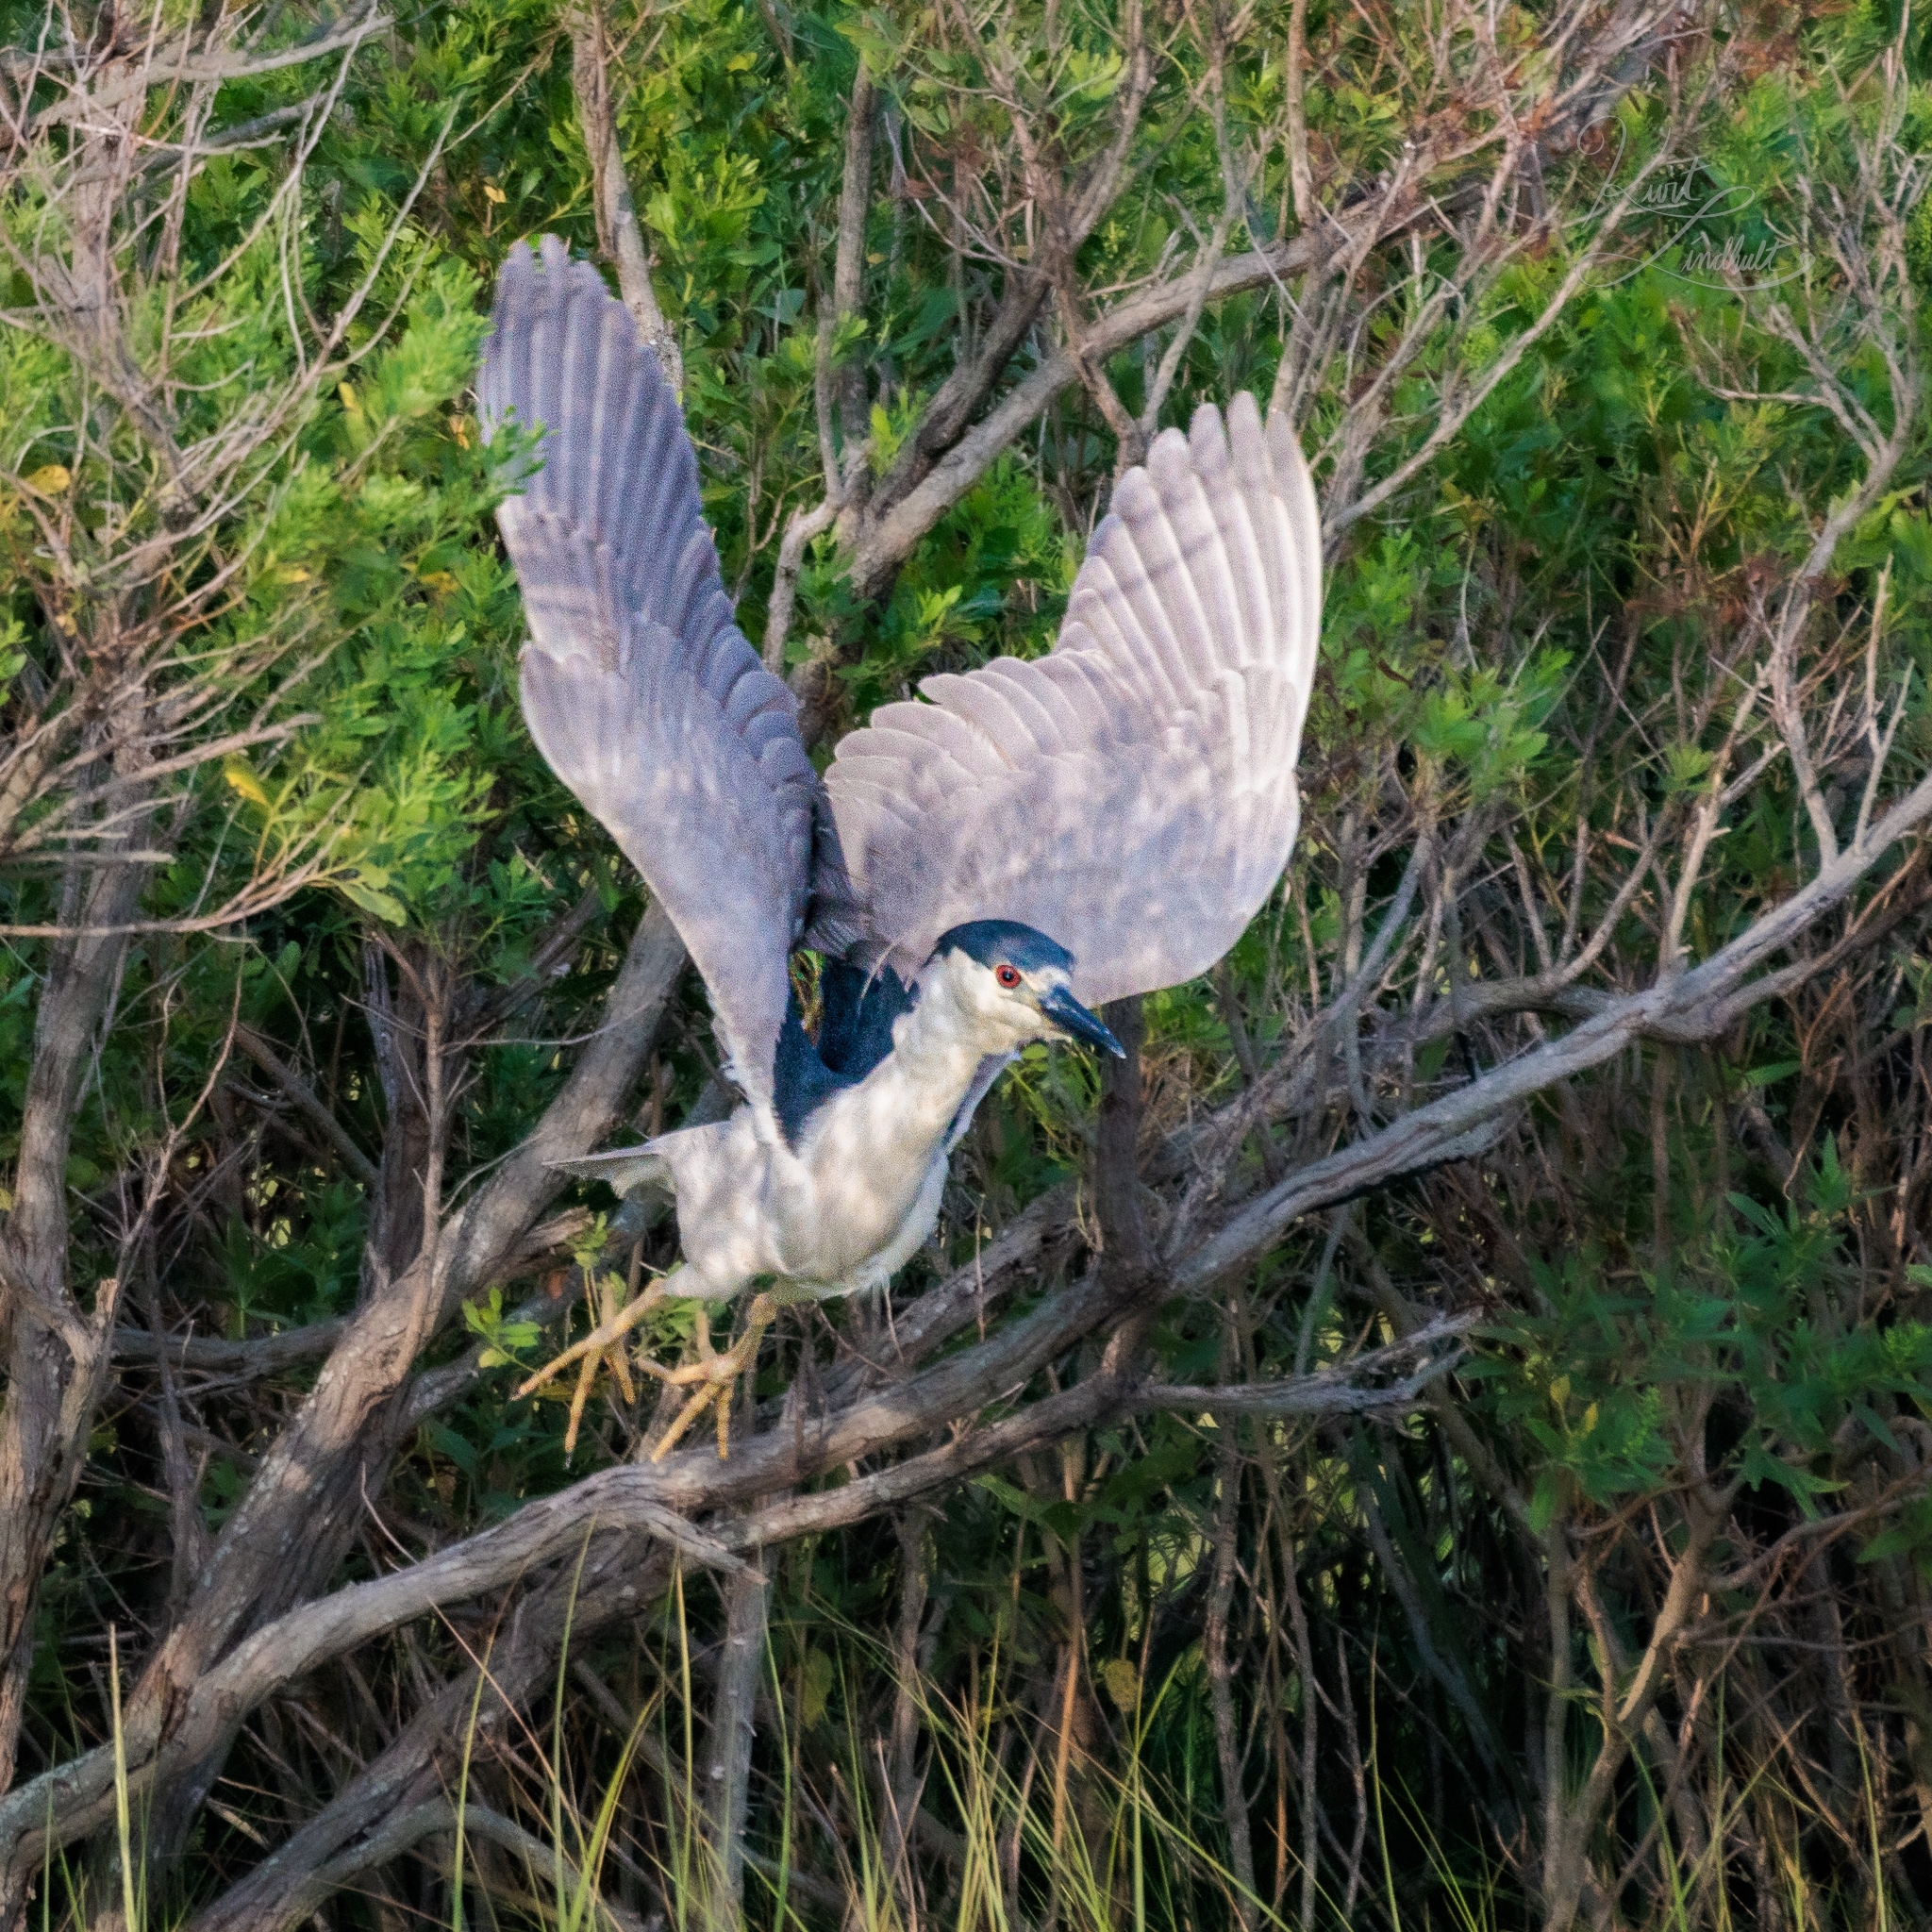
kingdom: Animalia
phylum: Chordata
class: Aves
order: Pelecaniformes
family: Ardeidae
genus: Nycticorax
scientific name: Nycticorax nycticorax
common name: Black-crowned night heron
